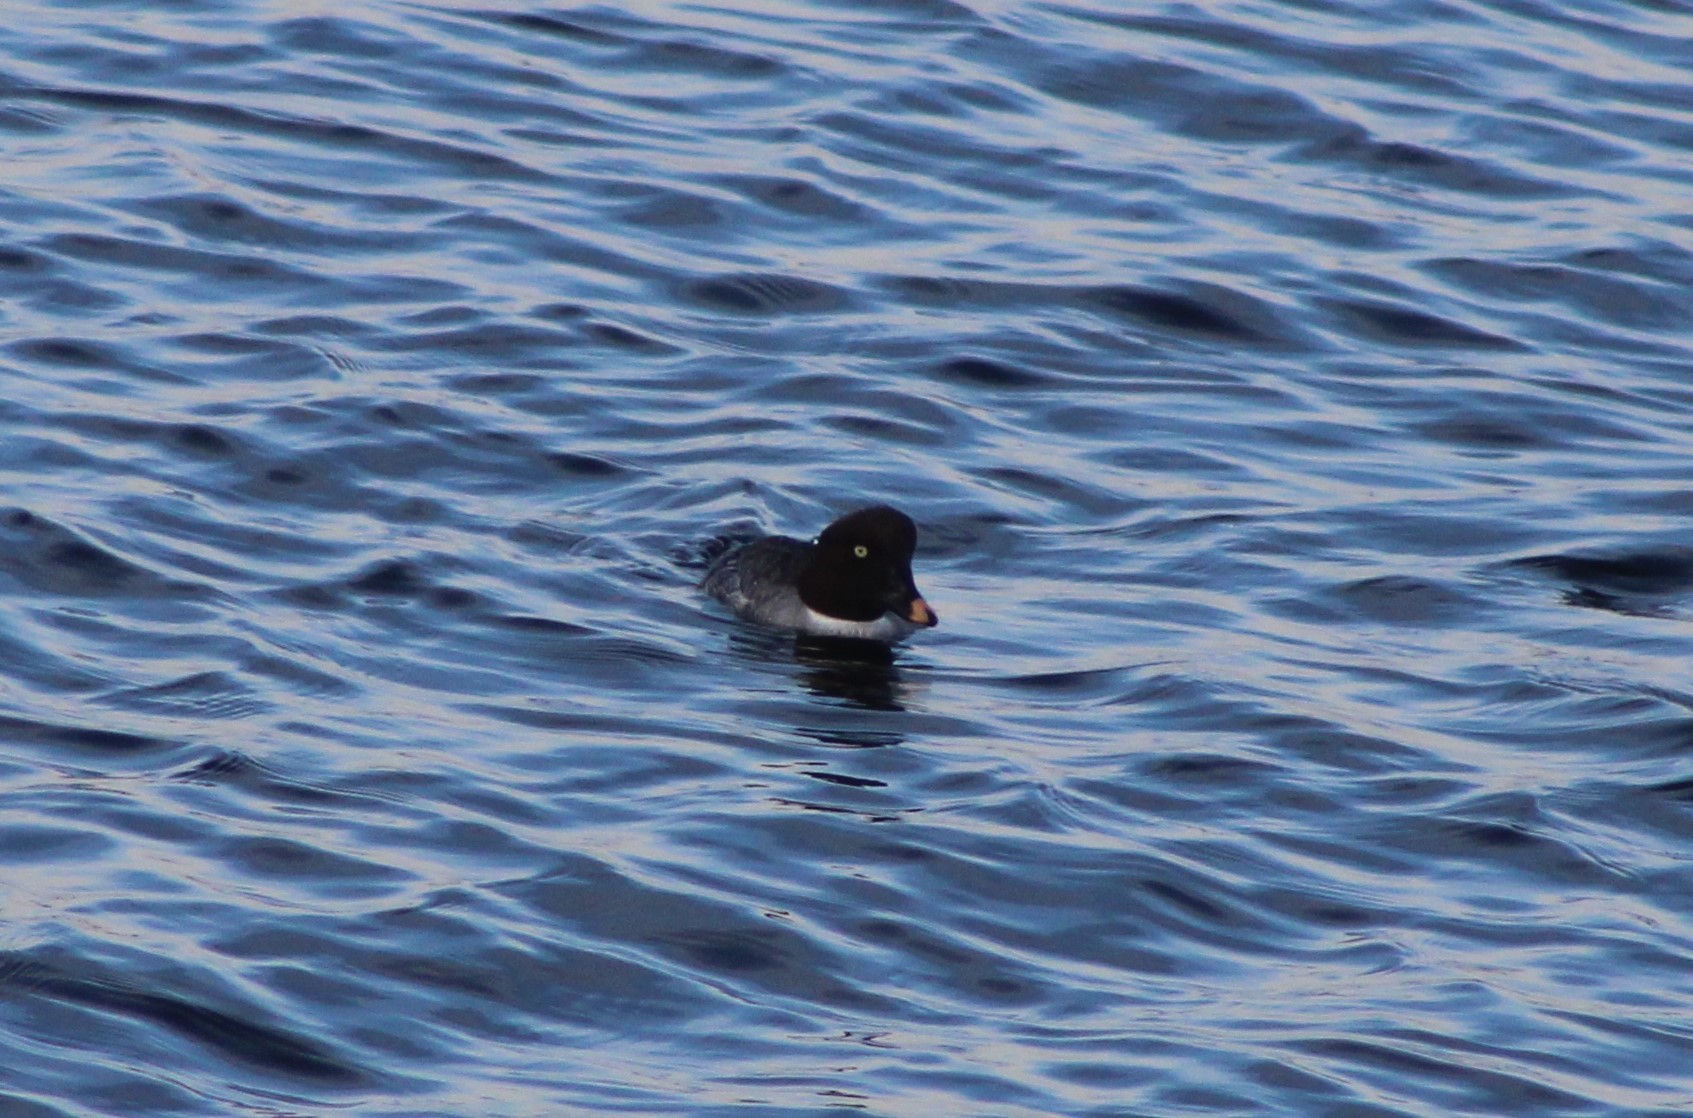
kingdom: Animalia
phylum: Chordata
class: Aves
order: Anseriformes
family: Anatidae
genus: Bucephala
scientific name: Bucephala clangula
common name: Common goldeneye
